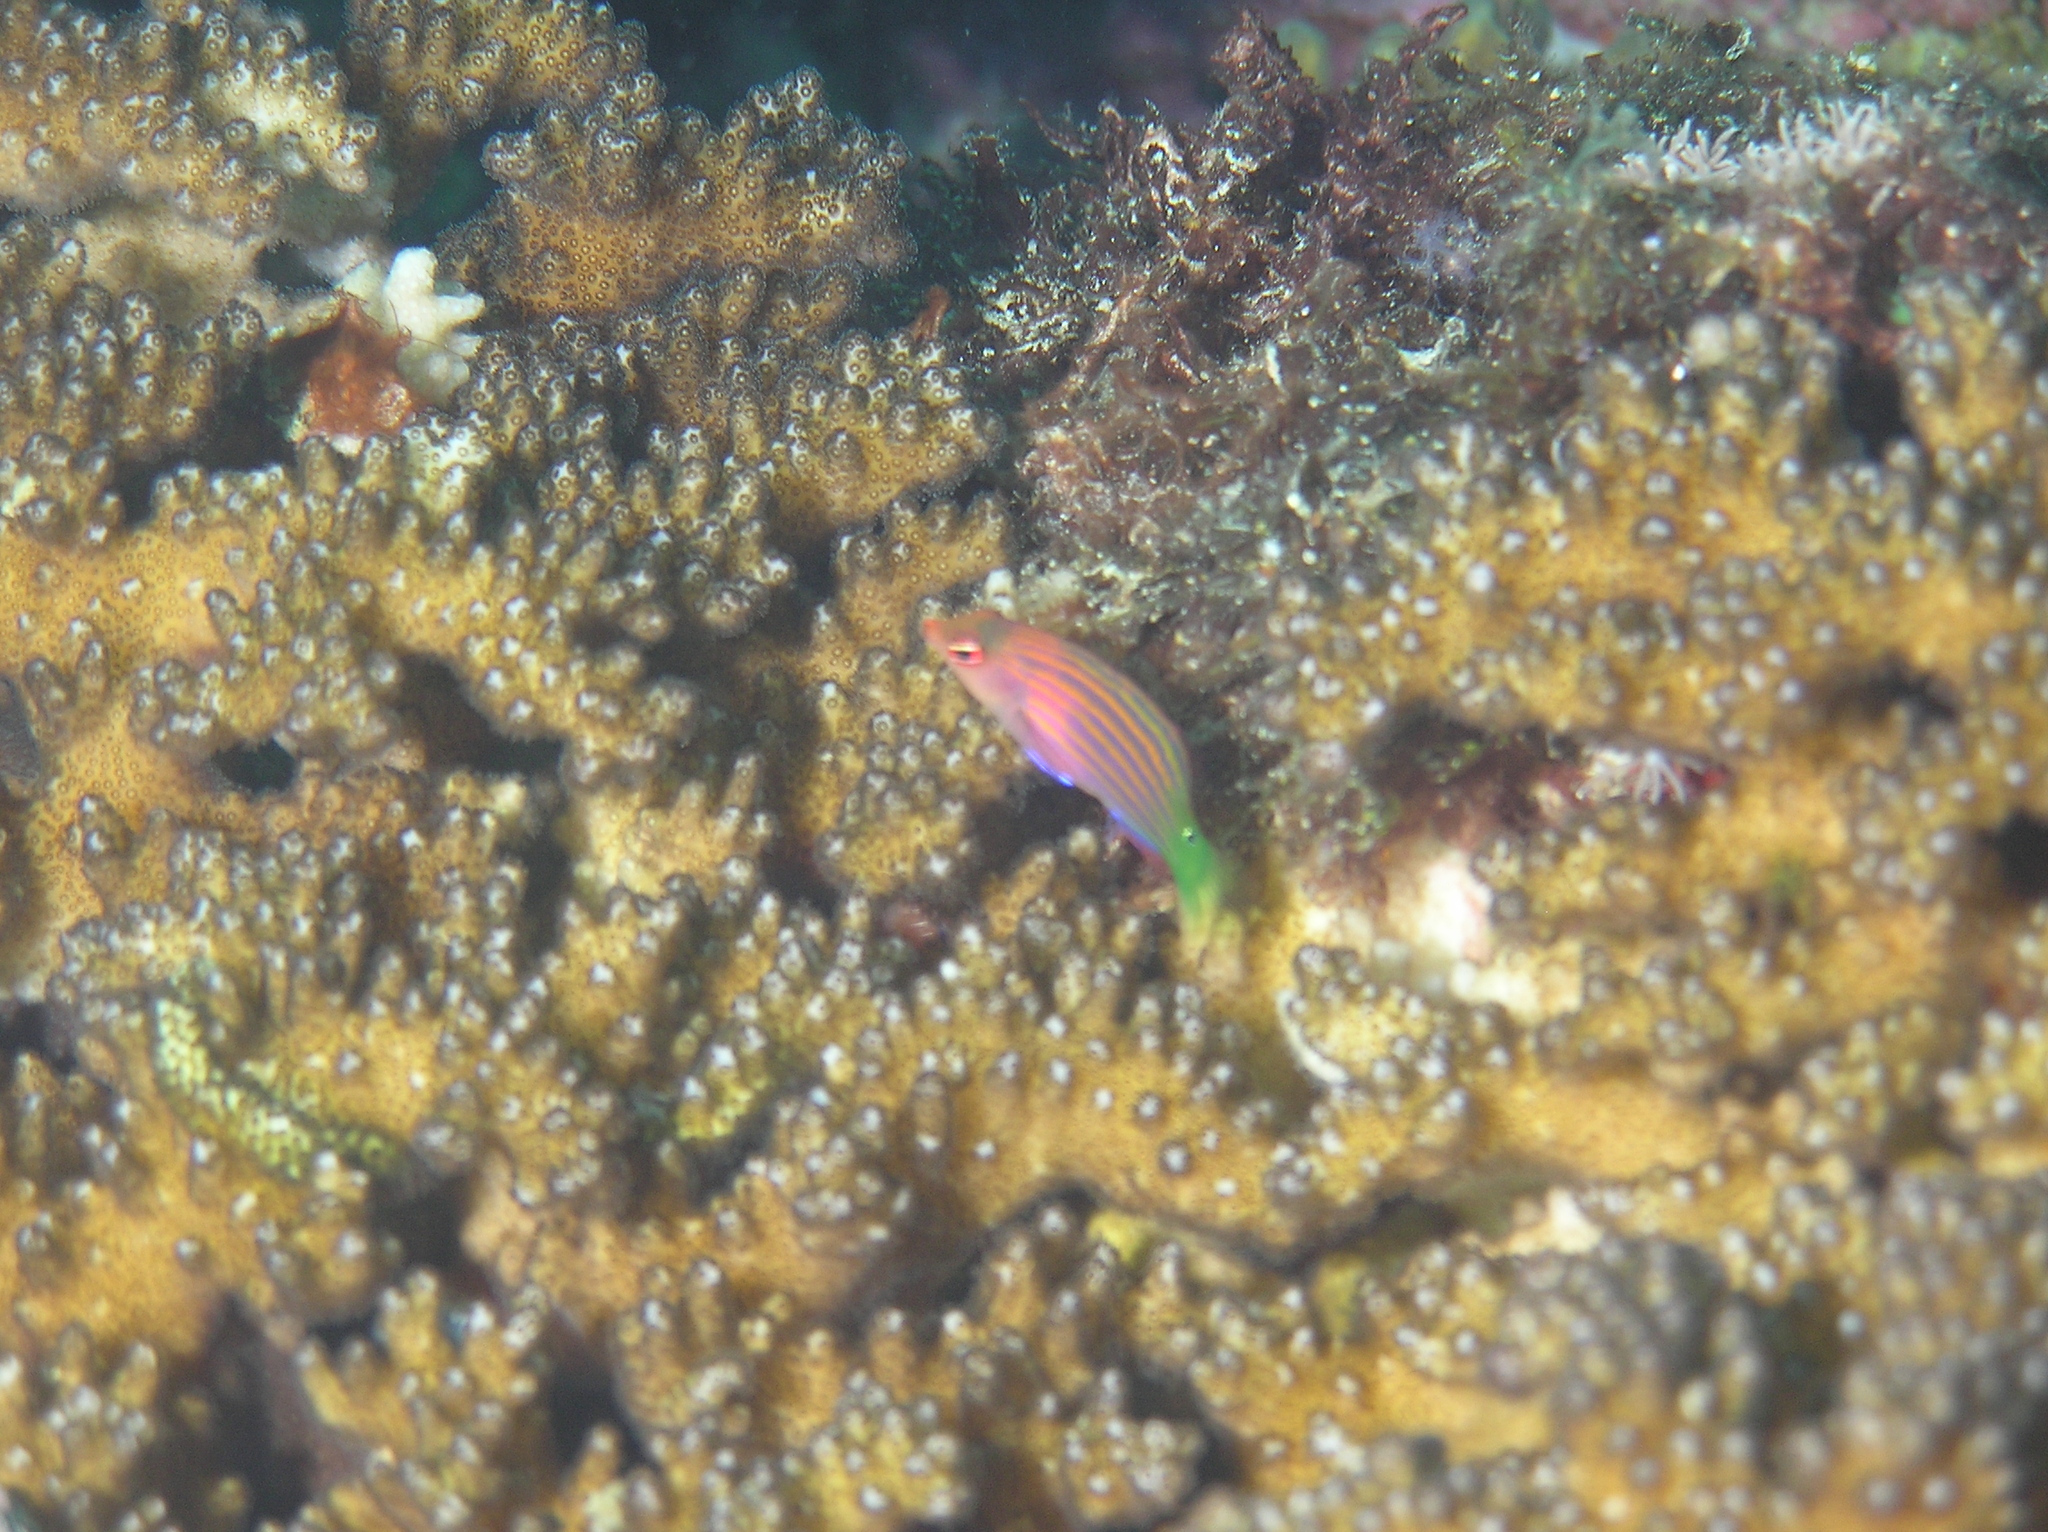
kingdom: Animalia
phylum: Chordata
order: Perciformes
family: Labridae
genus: Pseudocheilinus
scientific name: Pseudocheilinus hexataenia
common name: Sixline wrasse
